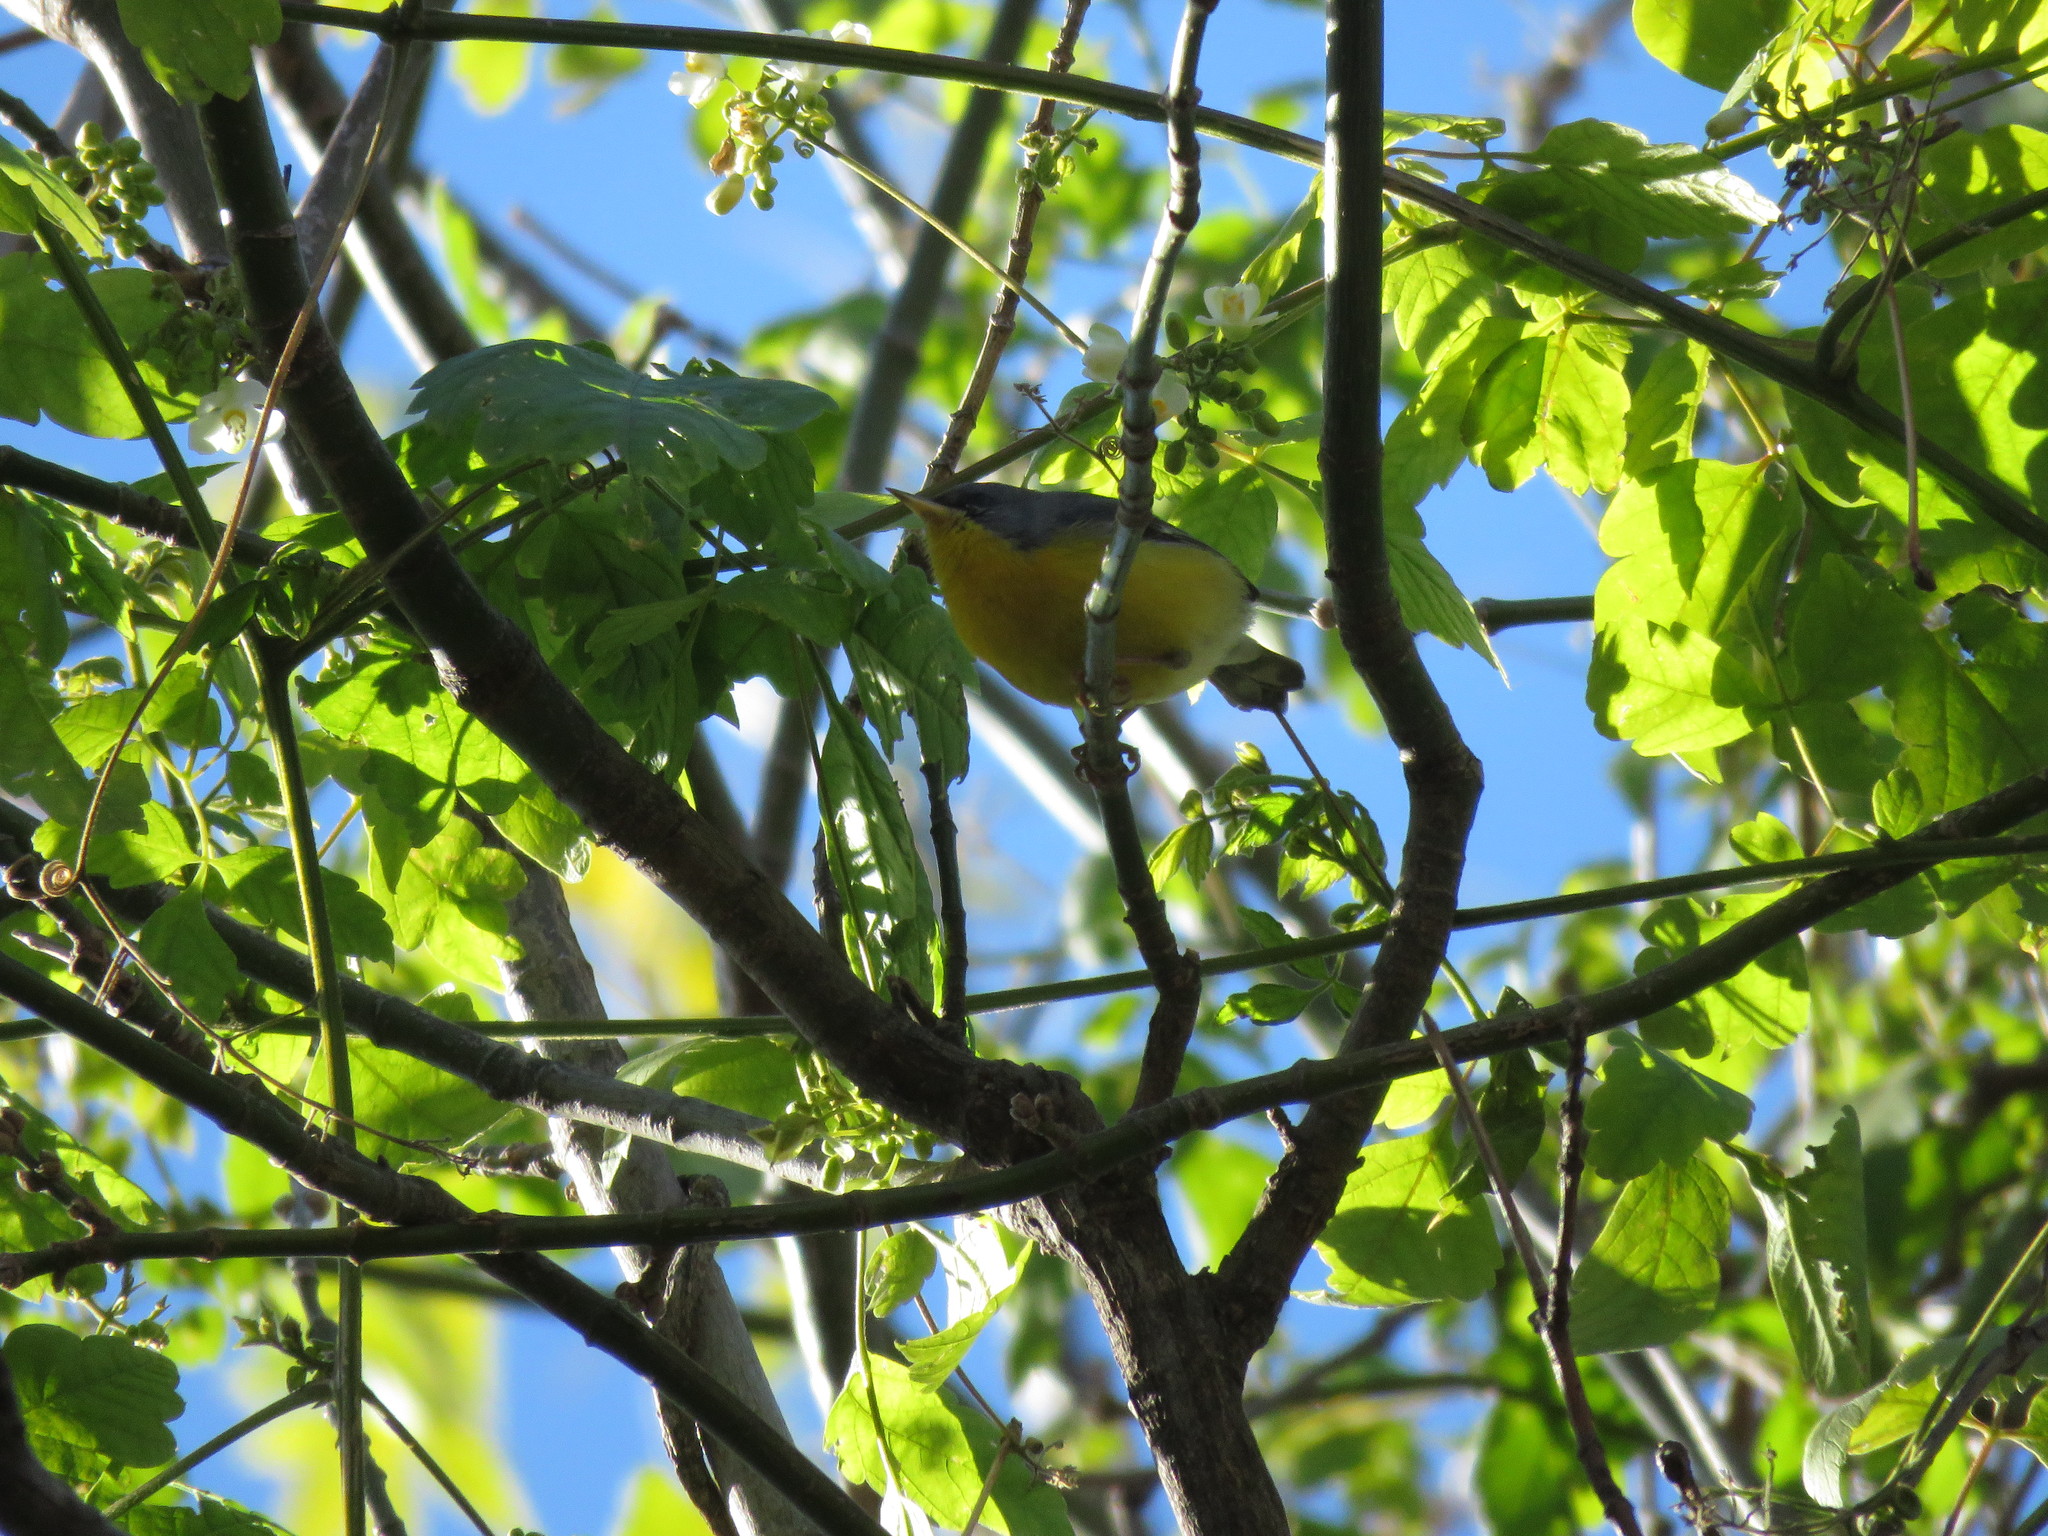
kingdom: Animalia
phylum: Chordata
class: Aves
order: Passeriformes
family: Parulidae
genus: Setophaga
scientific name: Setophaga pitiayumi
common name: Tropical parula
